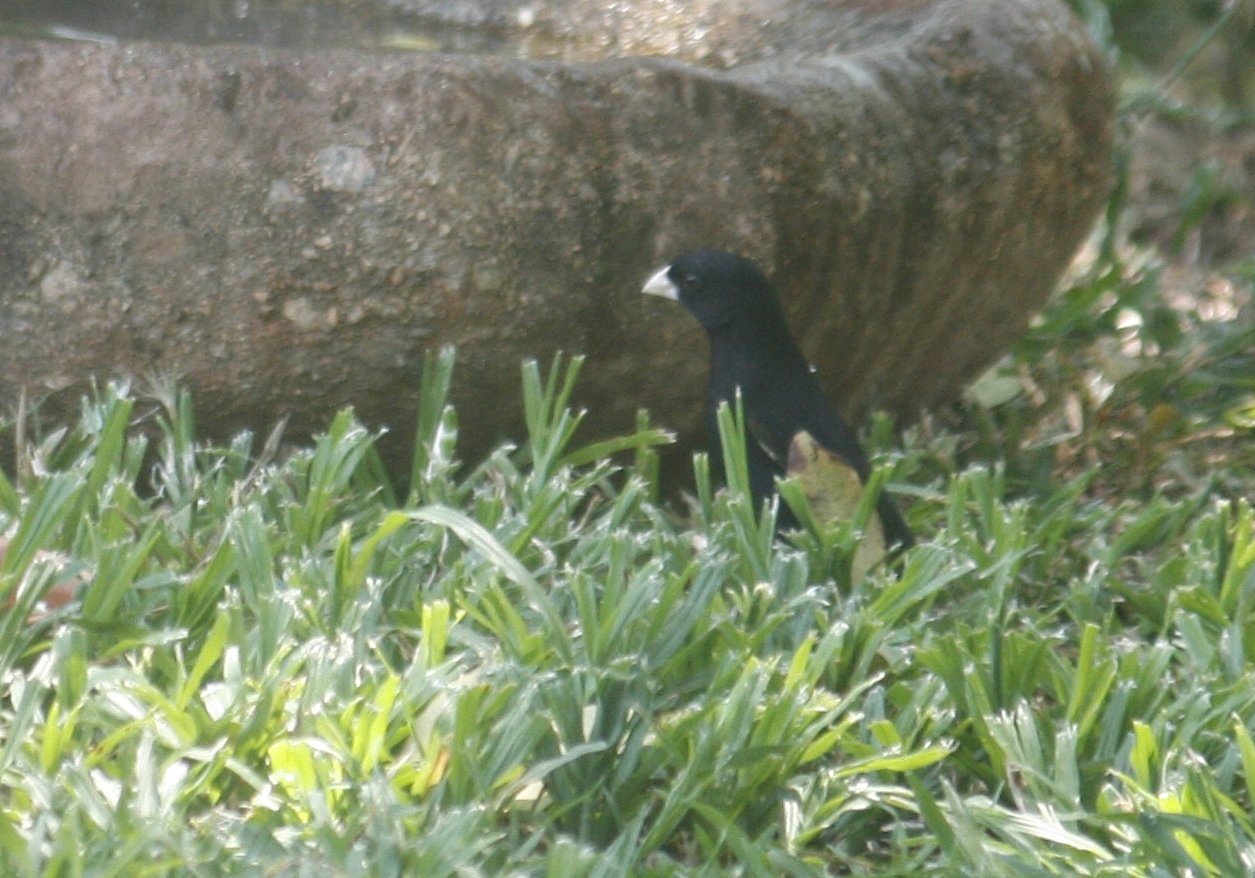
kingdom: Animalia
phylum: Chordata
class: Aves
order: Passeriformes
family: Viduidae
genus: Vidua
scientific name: Vidua purpurascens
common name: Purple indigobird
